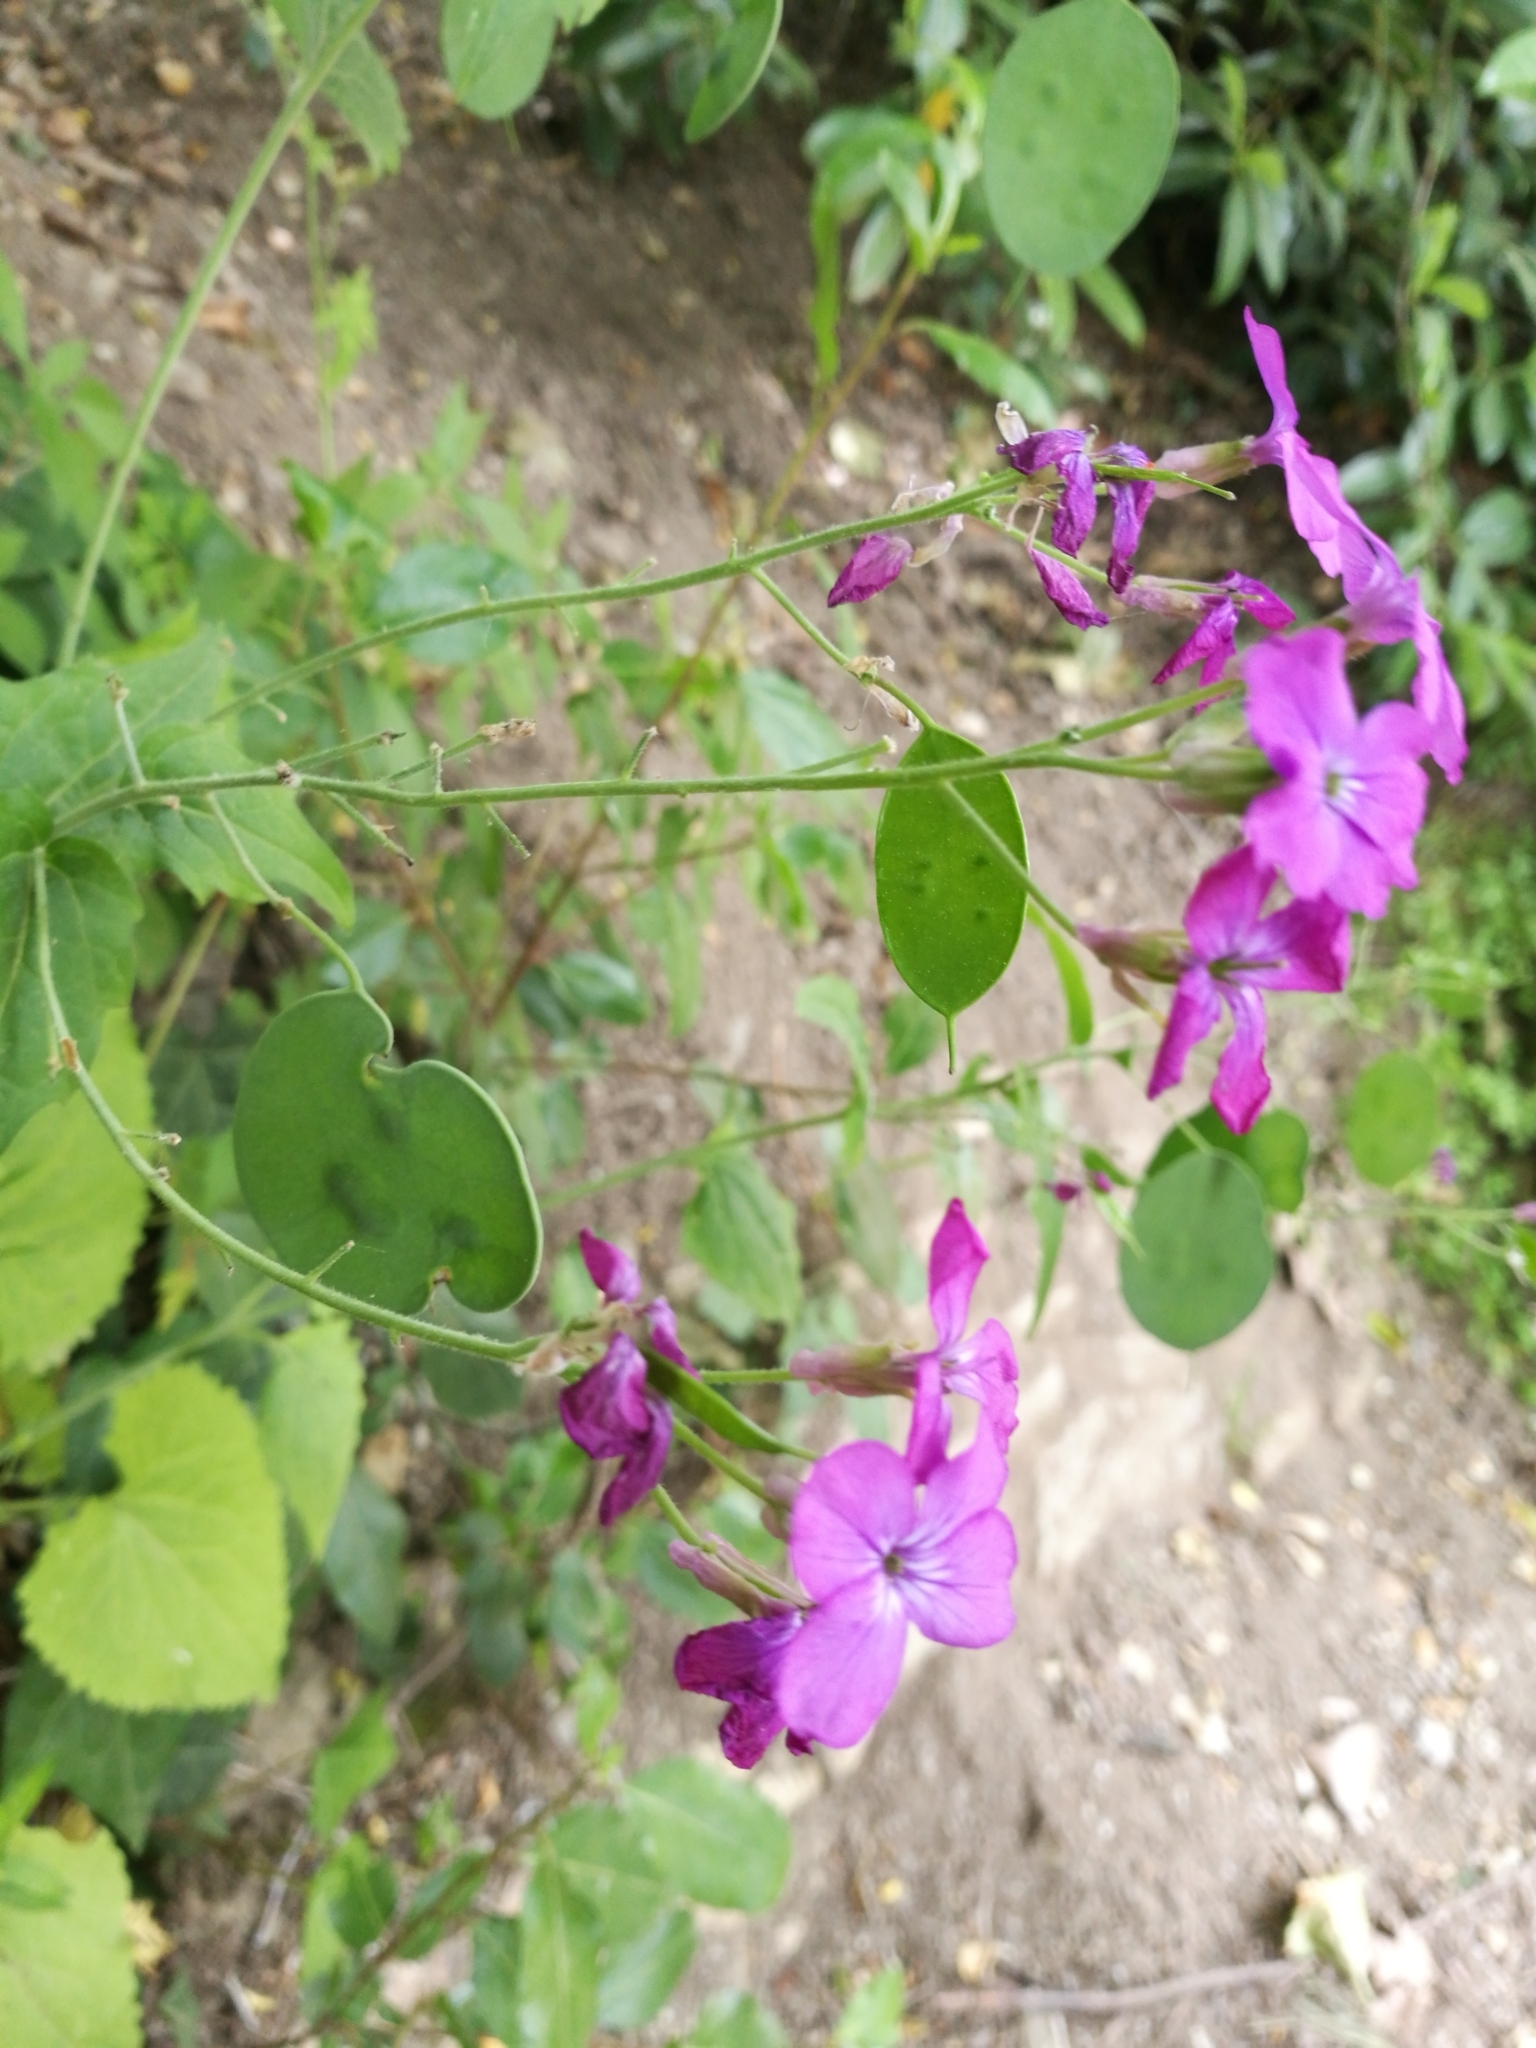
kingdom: Plantae
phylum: Tracheophyta
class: Magnoliopsida
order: Brassicales
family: Brassicaceae
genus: Lunaria
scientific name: Lunaria annua
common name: Honesty
